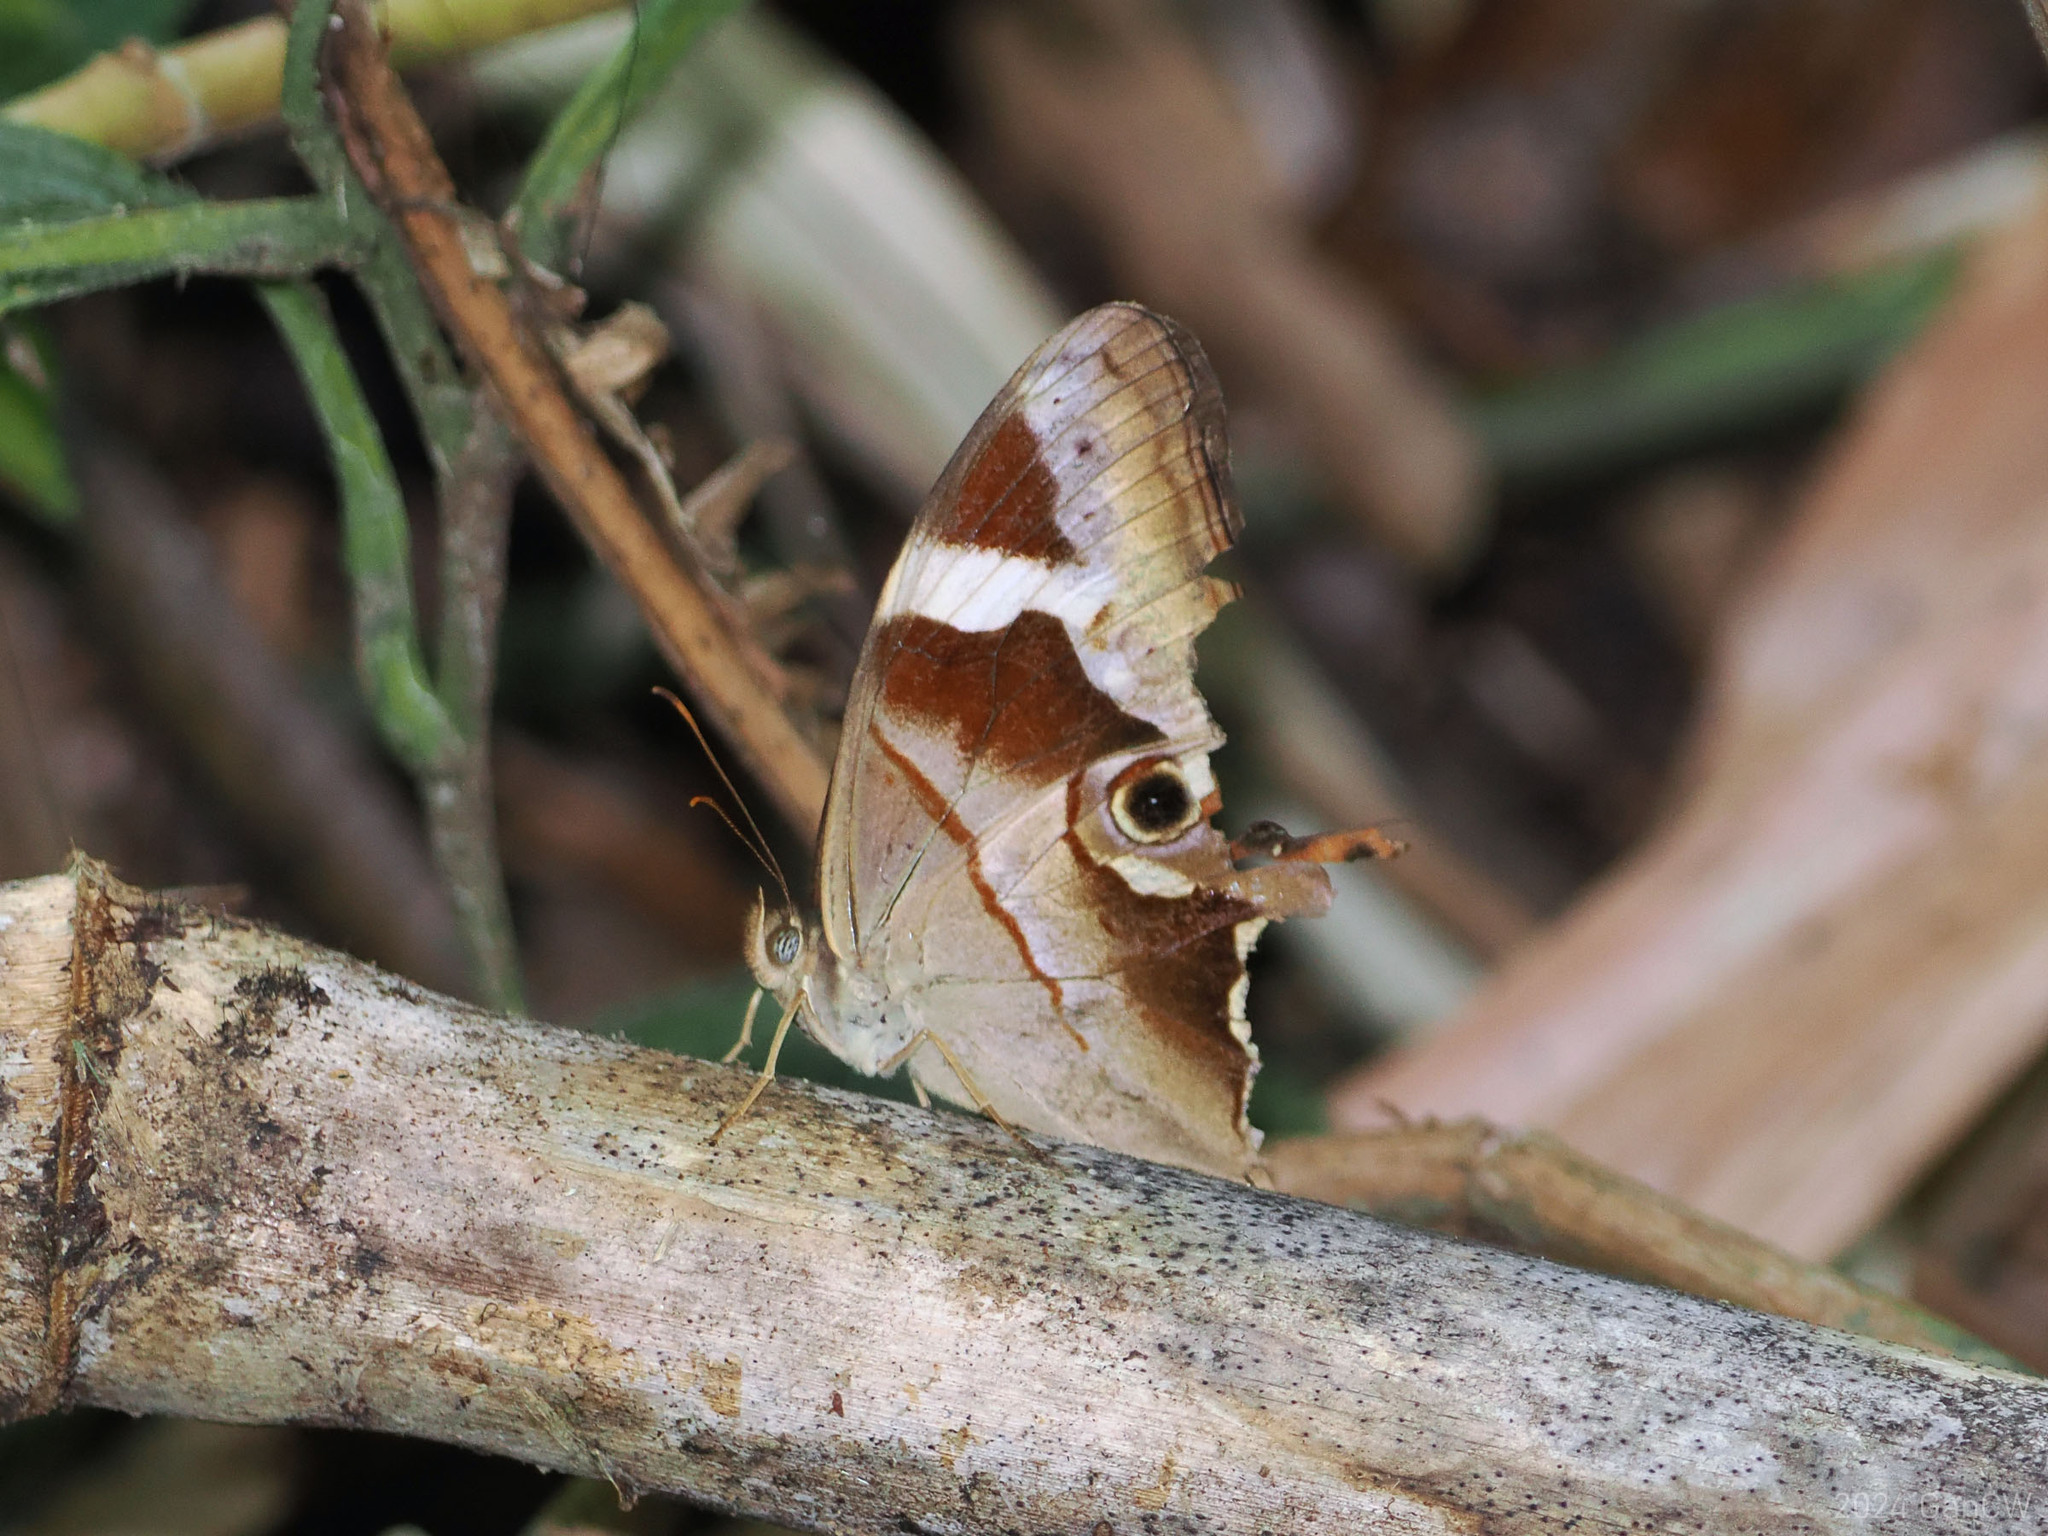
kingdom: Animalia
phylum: Arthropoda
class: Insecta
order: Lepidoptera
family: Nymphalidae
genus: Lethe
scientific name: Lethe chandica
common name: Angled red forester
